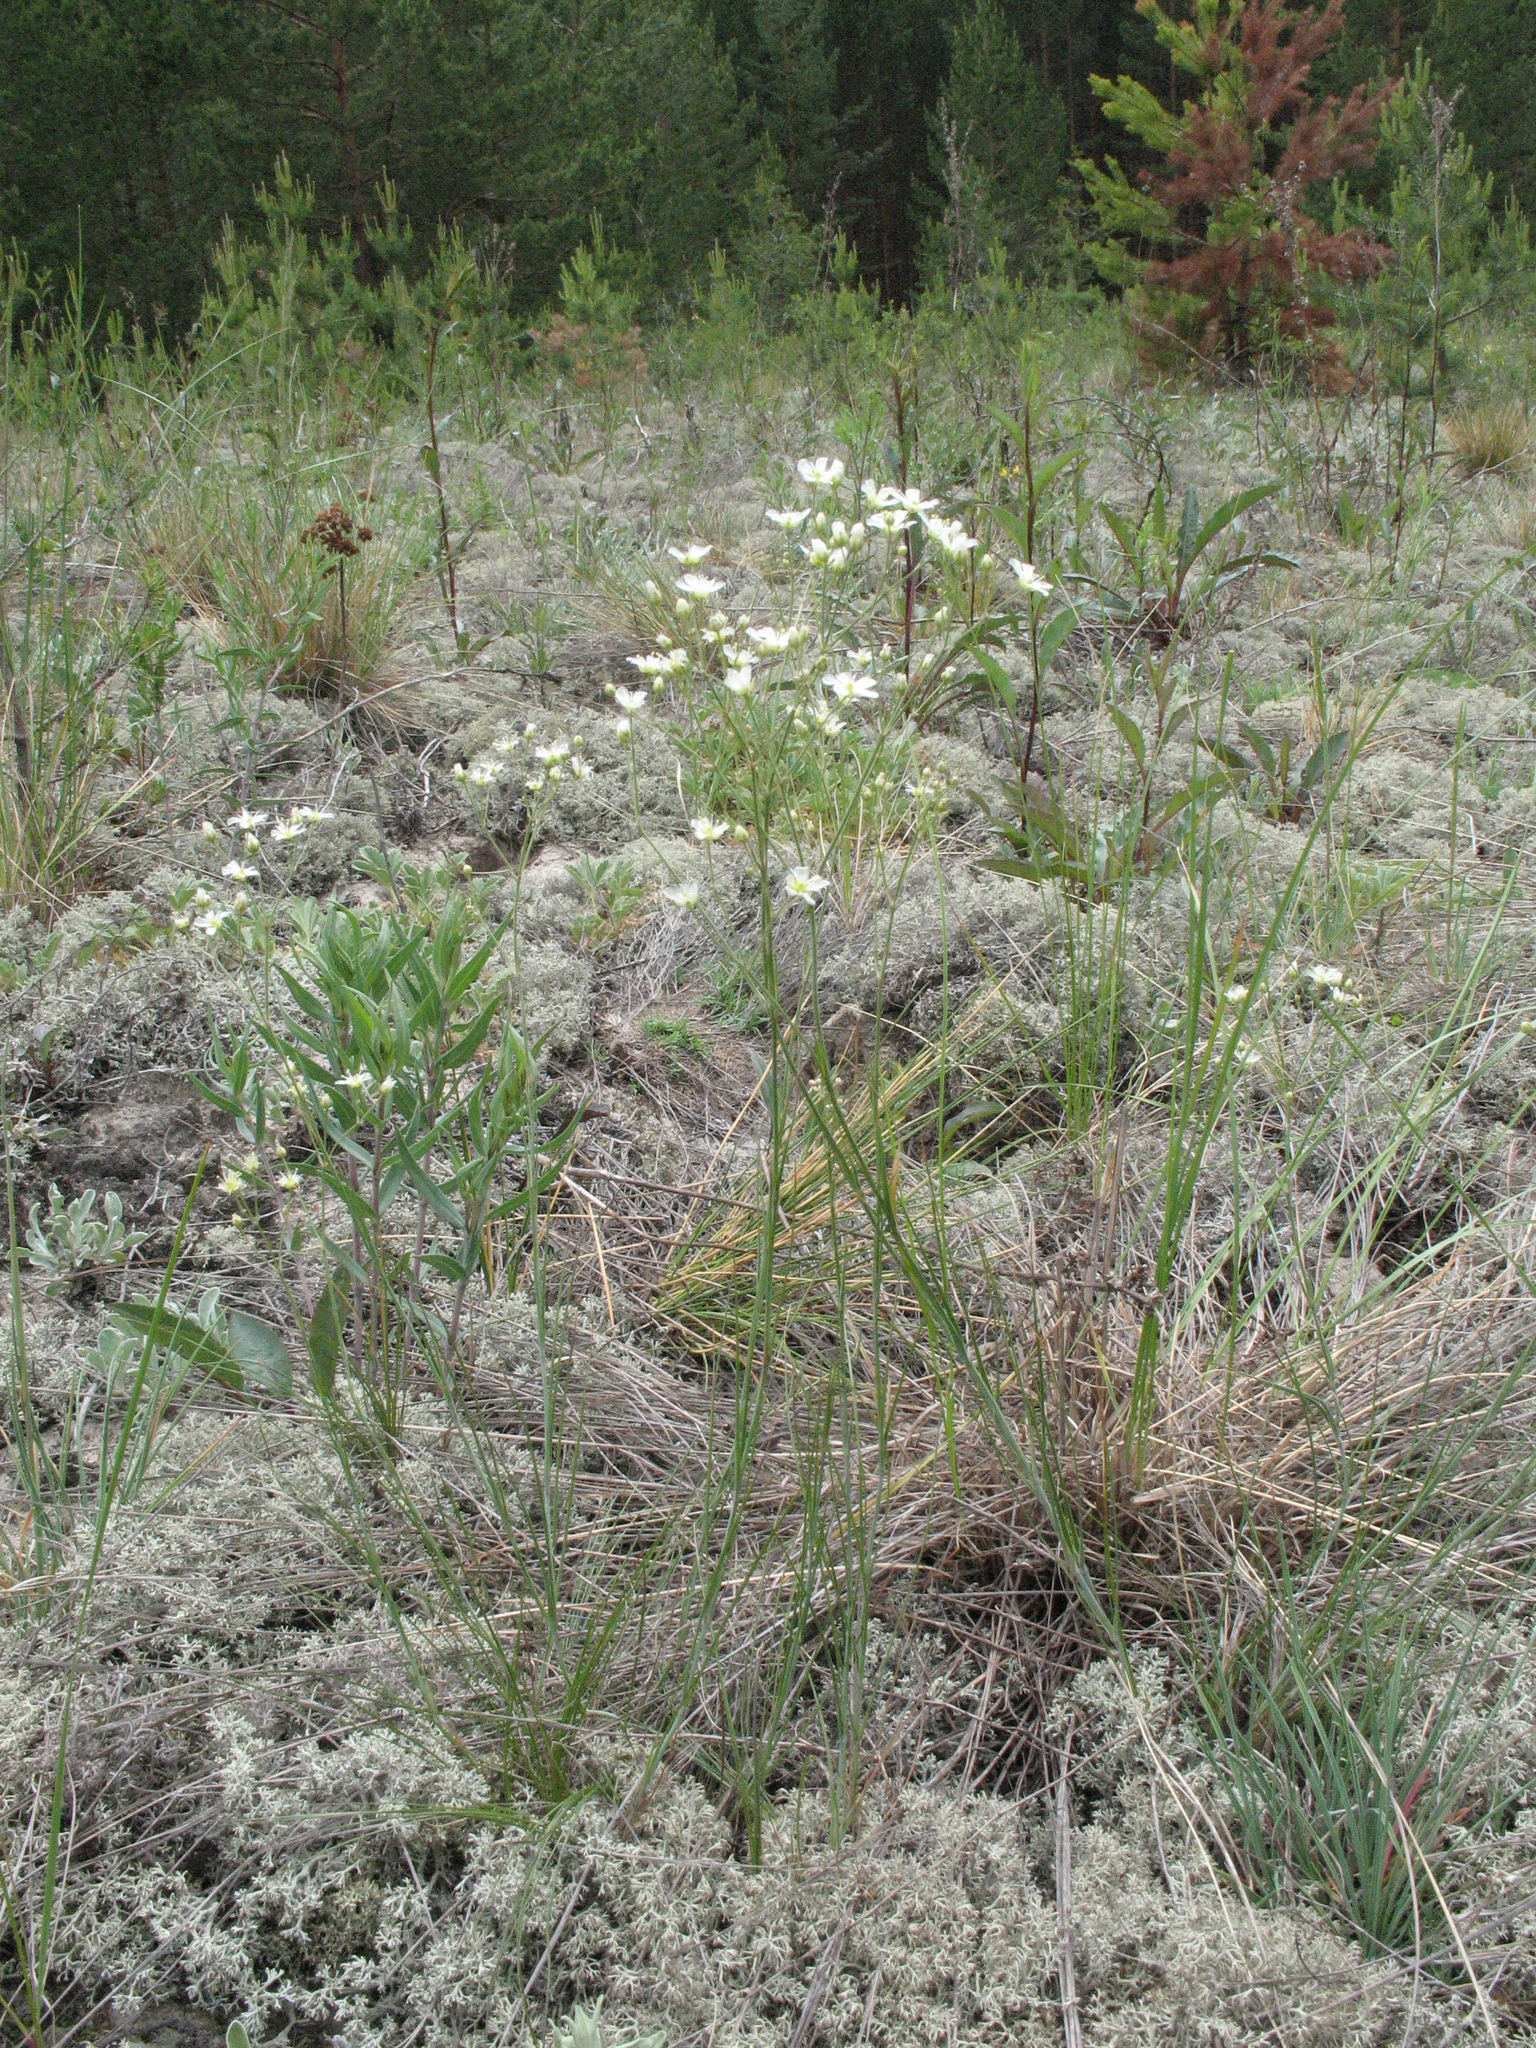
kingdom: Plantae
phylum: Tracheophyta
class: Magnoliopsida
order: Caryophyllales
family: Caryophyllaceae
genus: Eremogone
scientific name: Eremogone biebersteinii
